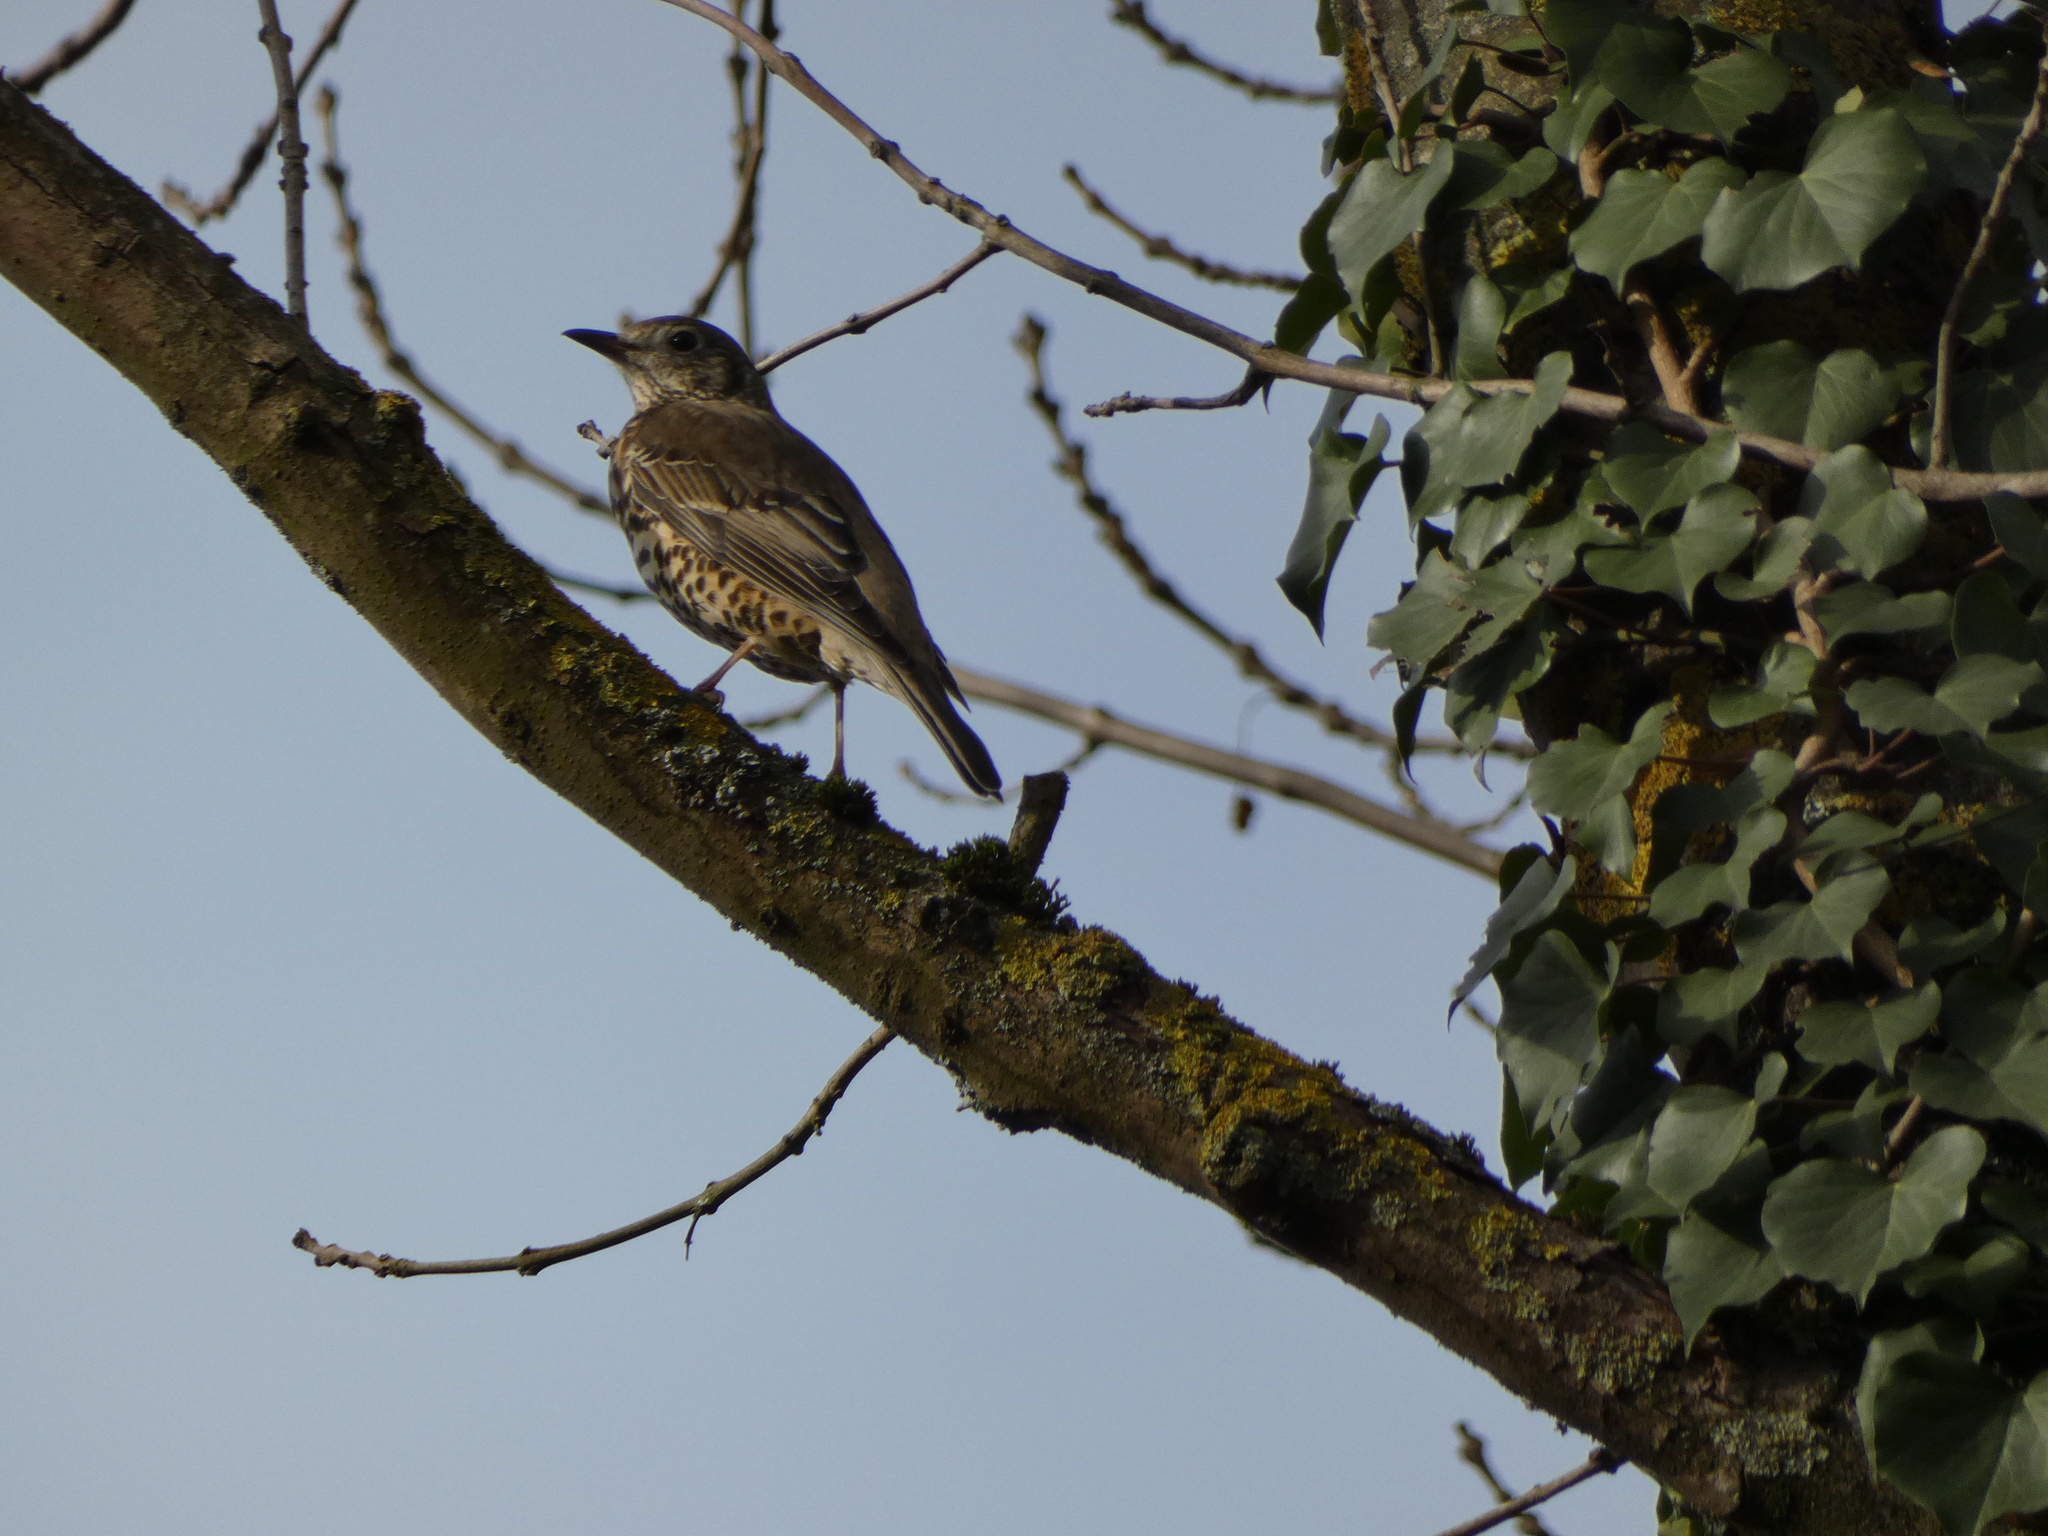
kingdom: Animalia
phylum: Chordata
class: Aves
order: Passeriformes
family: Turdidae
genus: Turdus
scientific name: Turdus philomelos
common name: Song thrush
